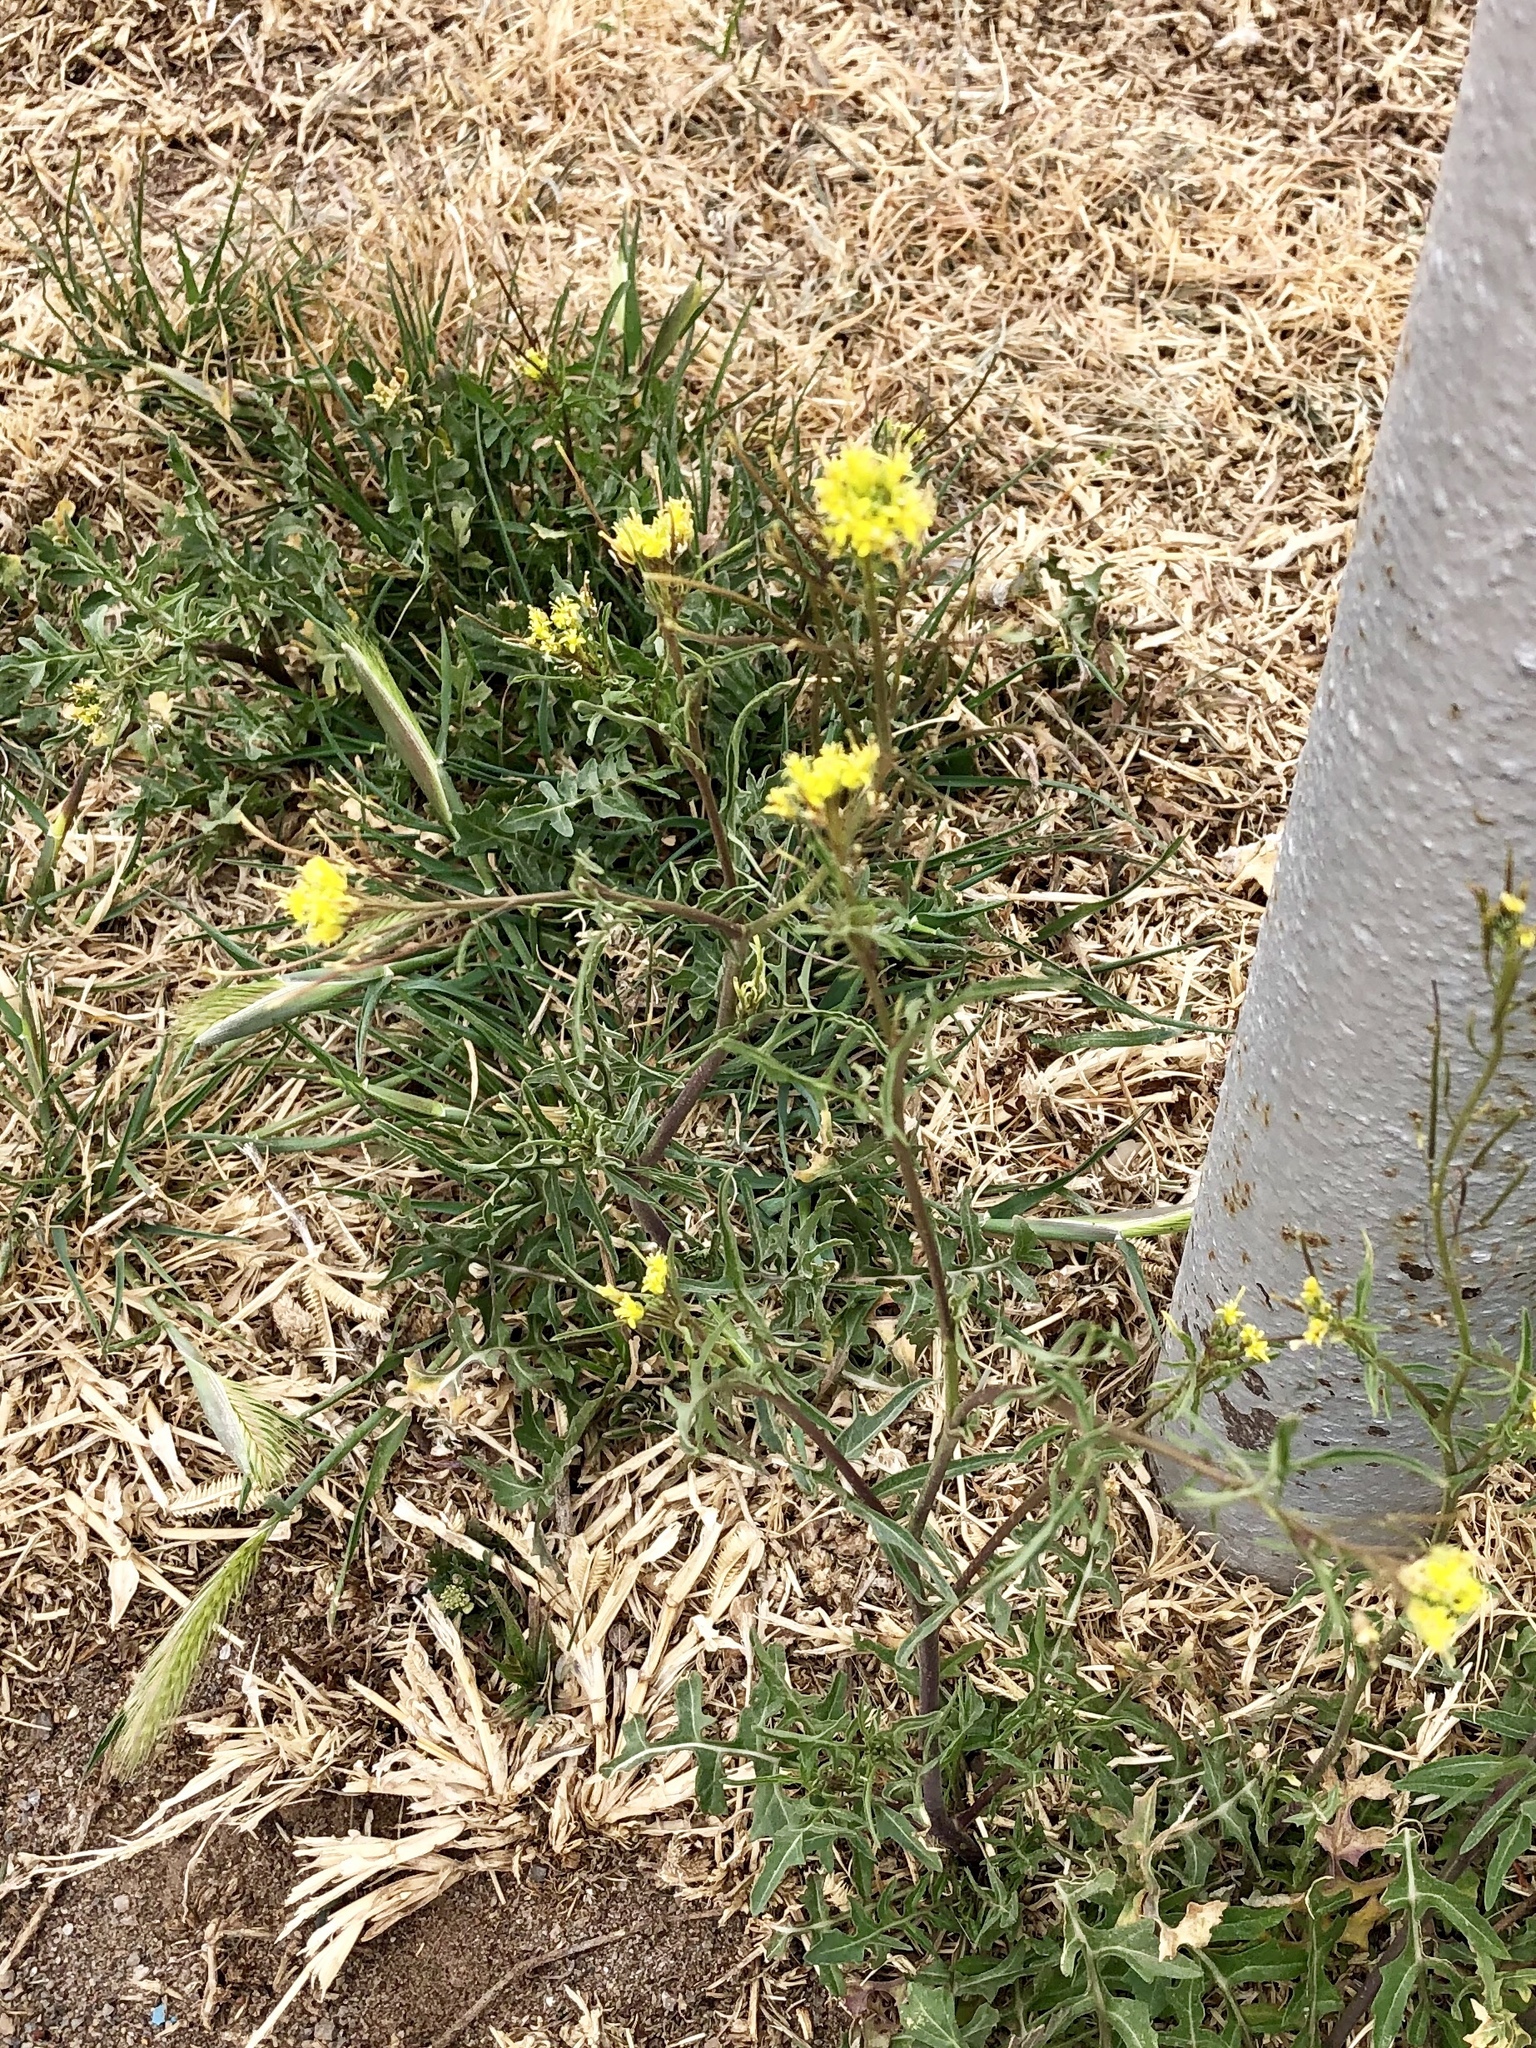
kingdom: Plantae
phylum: Tracheophyta
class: Magnoliopsida
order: Brassicales
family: Brassicaceae
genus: Sisymbrium
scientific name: Sisymbrium irio
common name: London rocket
